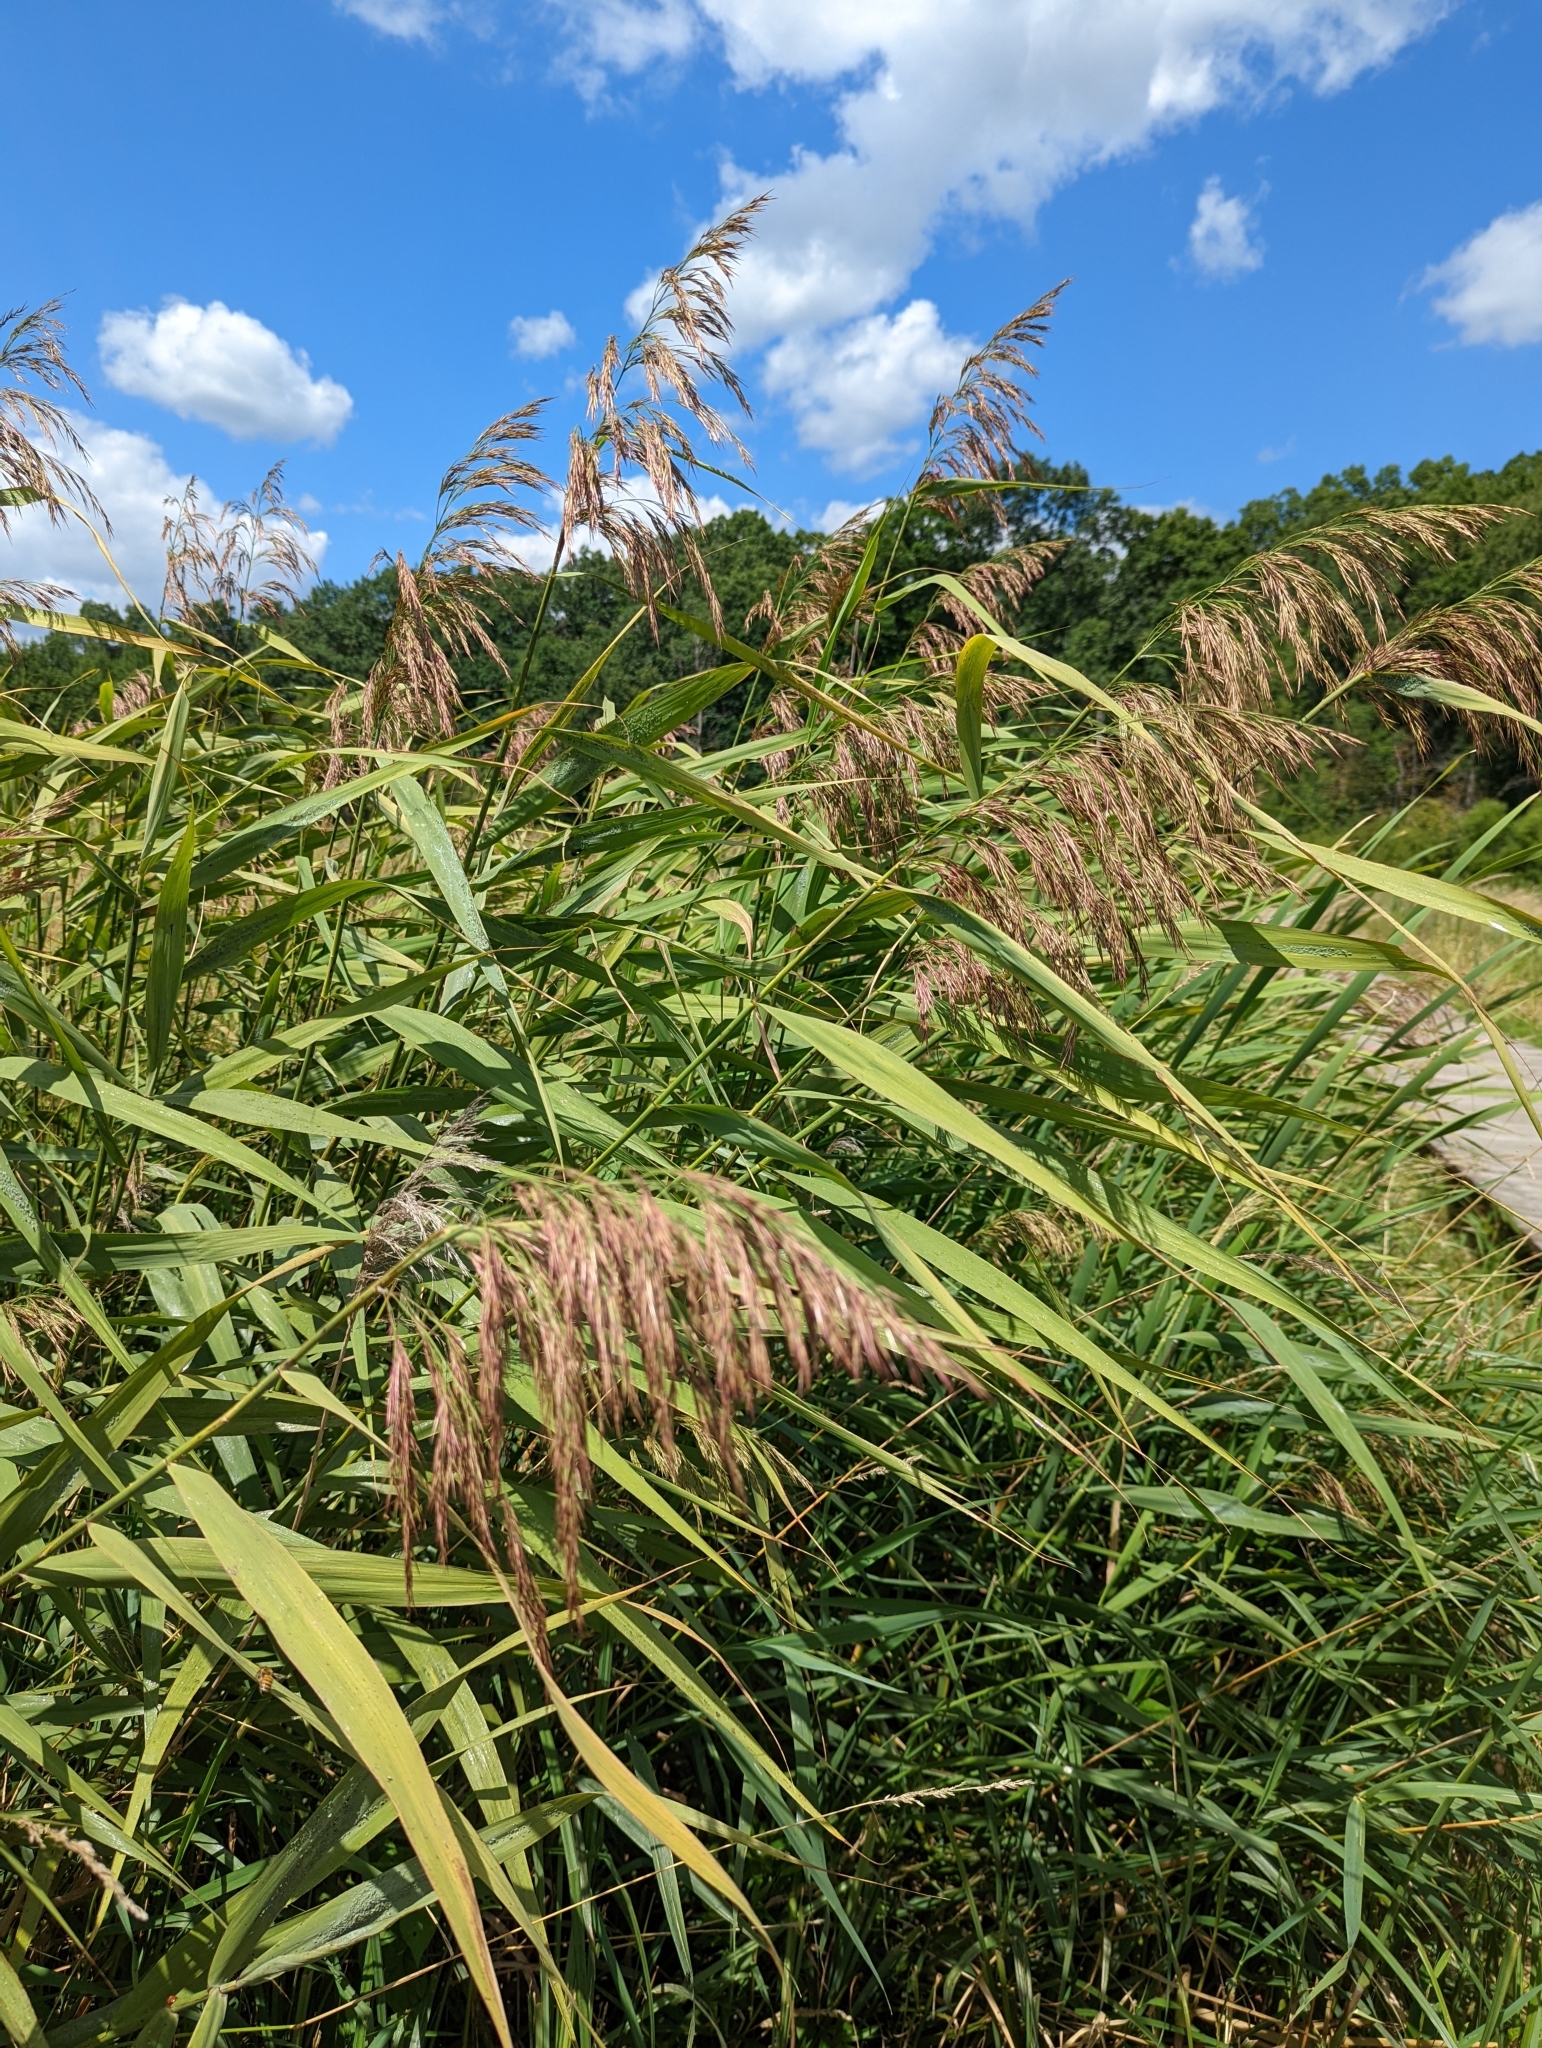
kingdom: Plantae
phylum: Tracheophyta
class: Liliopsida
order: Poales
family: Poaceae
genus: Phragmites
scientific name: Phragmites australis
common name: Common reed
